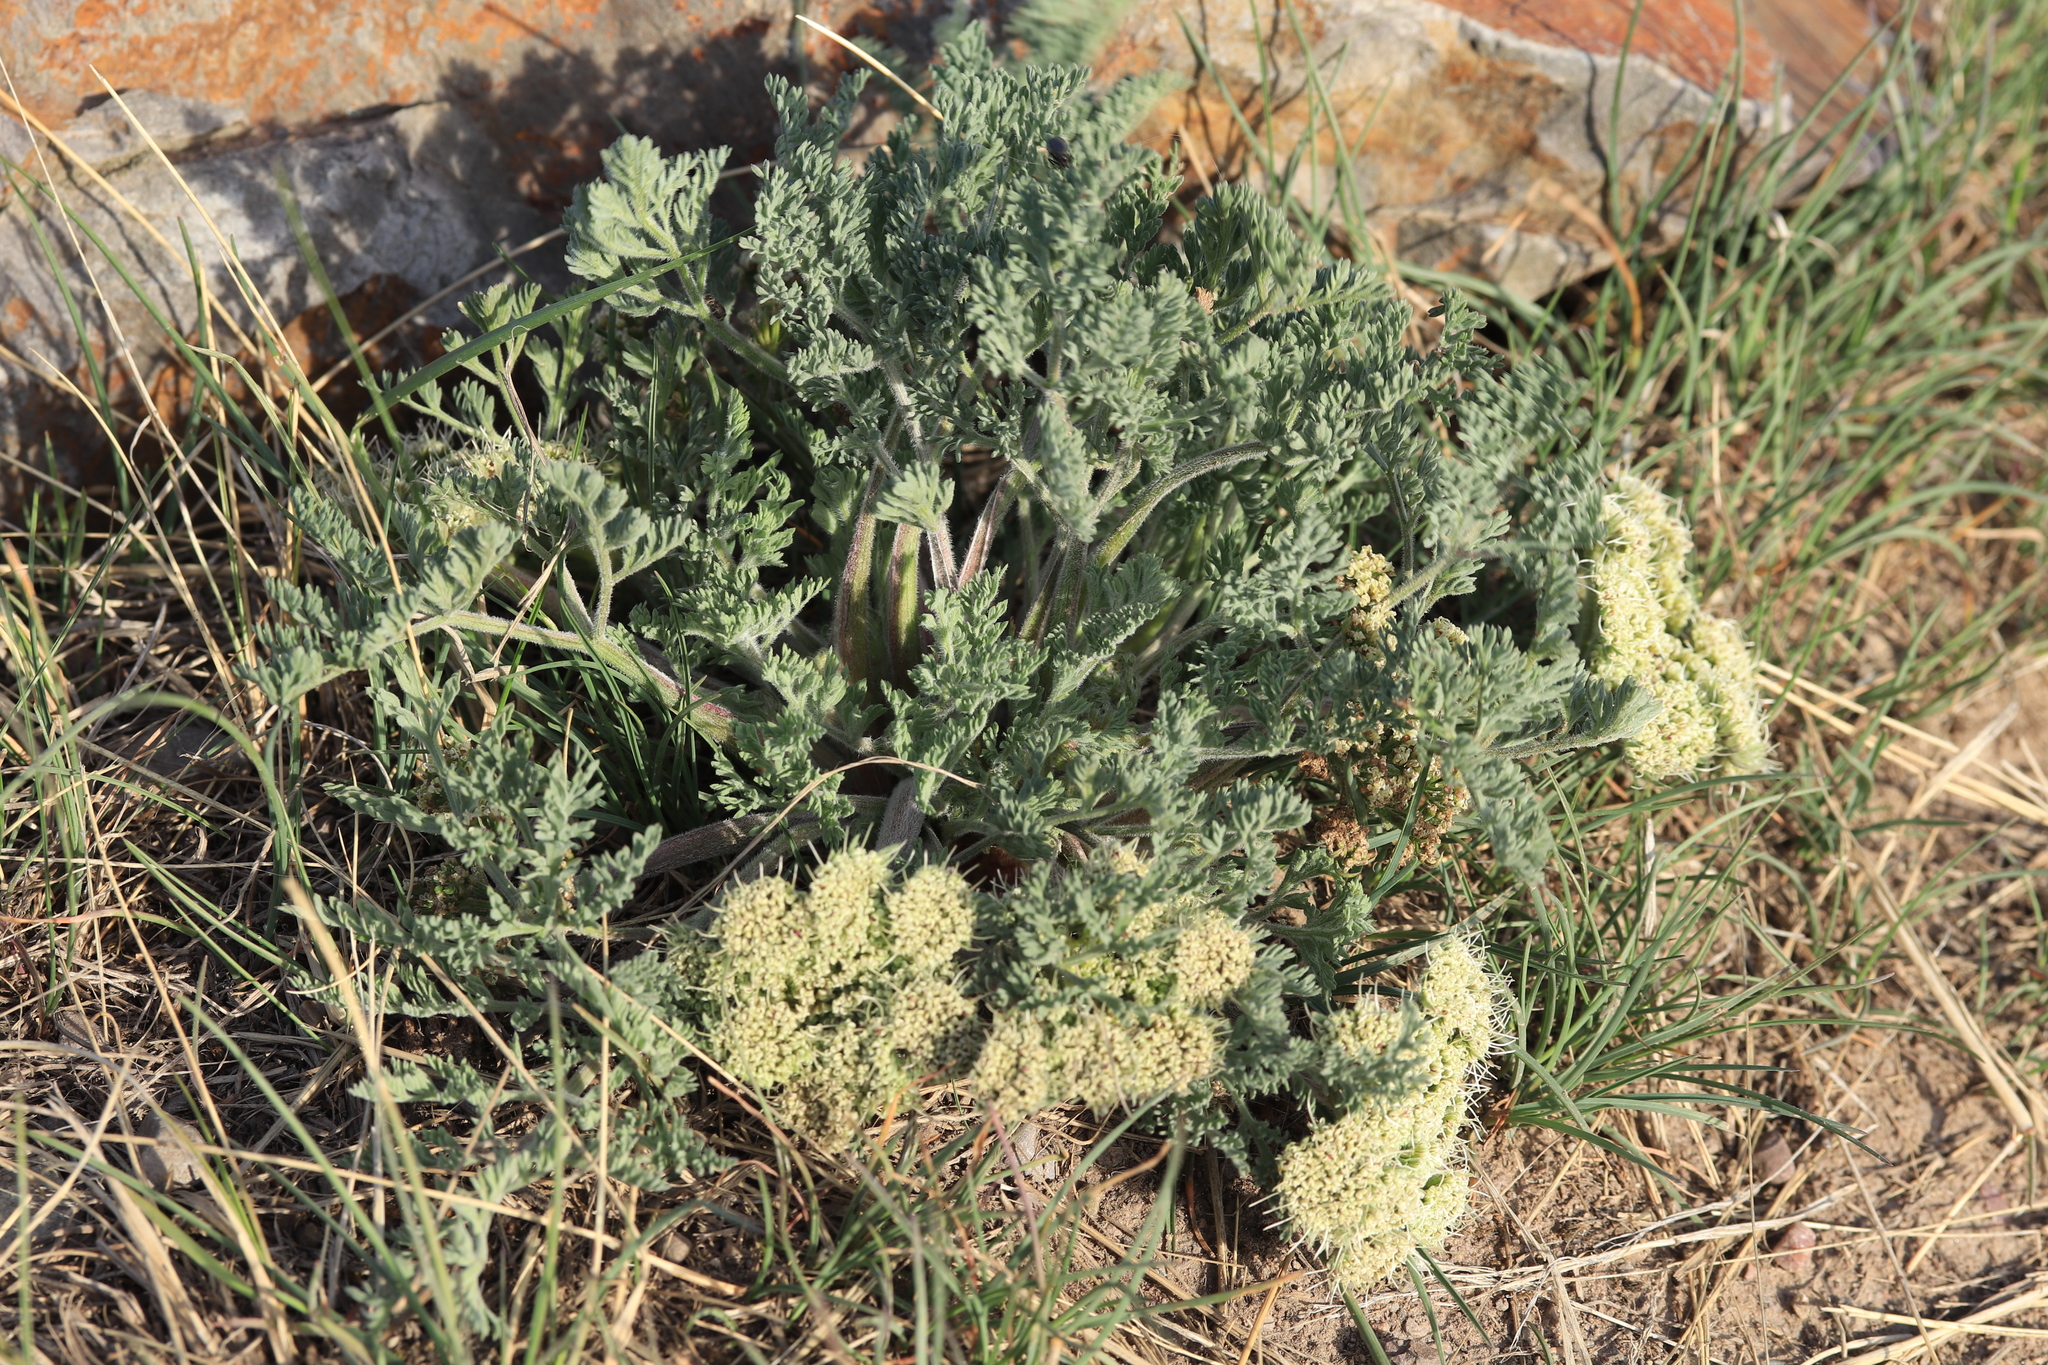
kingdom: Plantae
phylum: Tracheophyta
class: Magnoliopsida
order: Apiales
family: Apiaceae
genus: Lomatium
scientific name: Lomatium macrocarpum
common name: Big-seed biscuitroot
